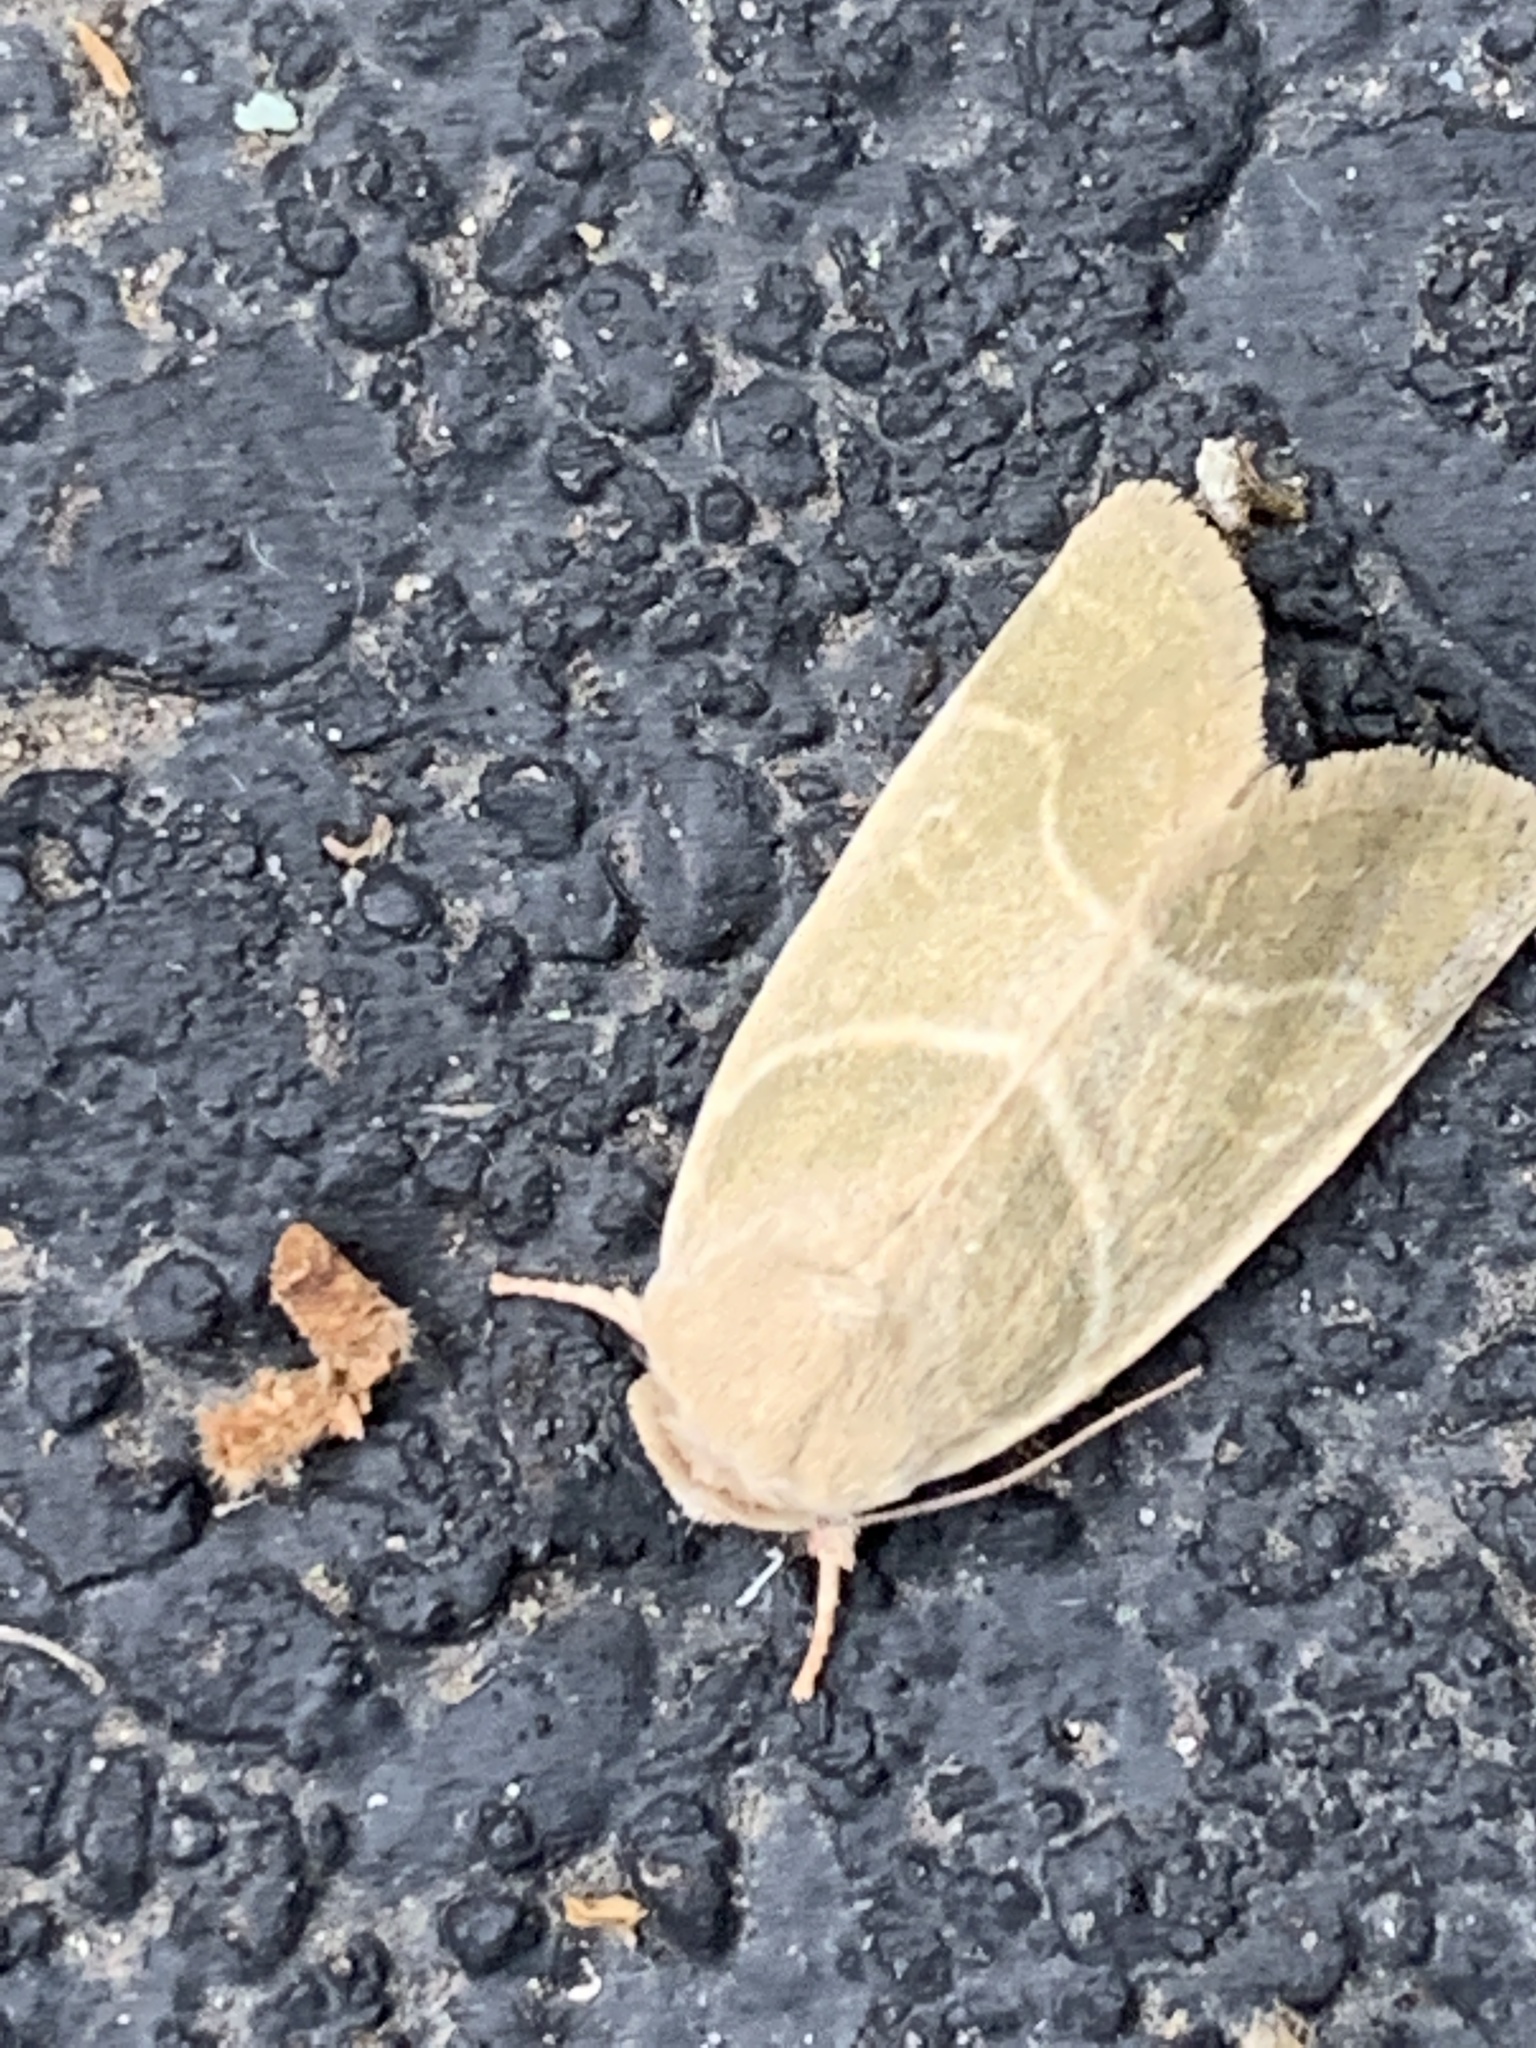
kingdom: Animalia
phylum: Arthropoda
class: Insecta
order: Lepidoptera
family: Noctuidae
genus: Cosmia
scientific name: Cosmia calami
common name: American dun-bar moth
